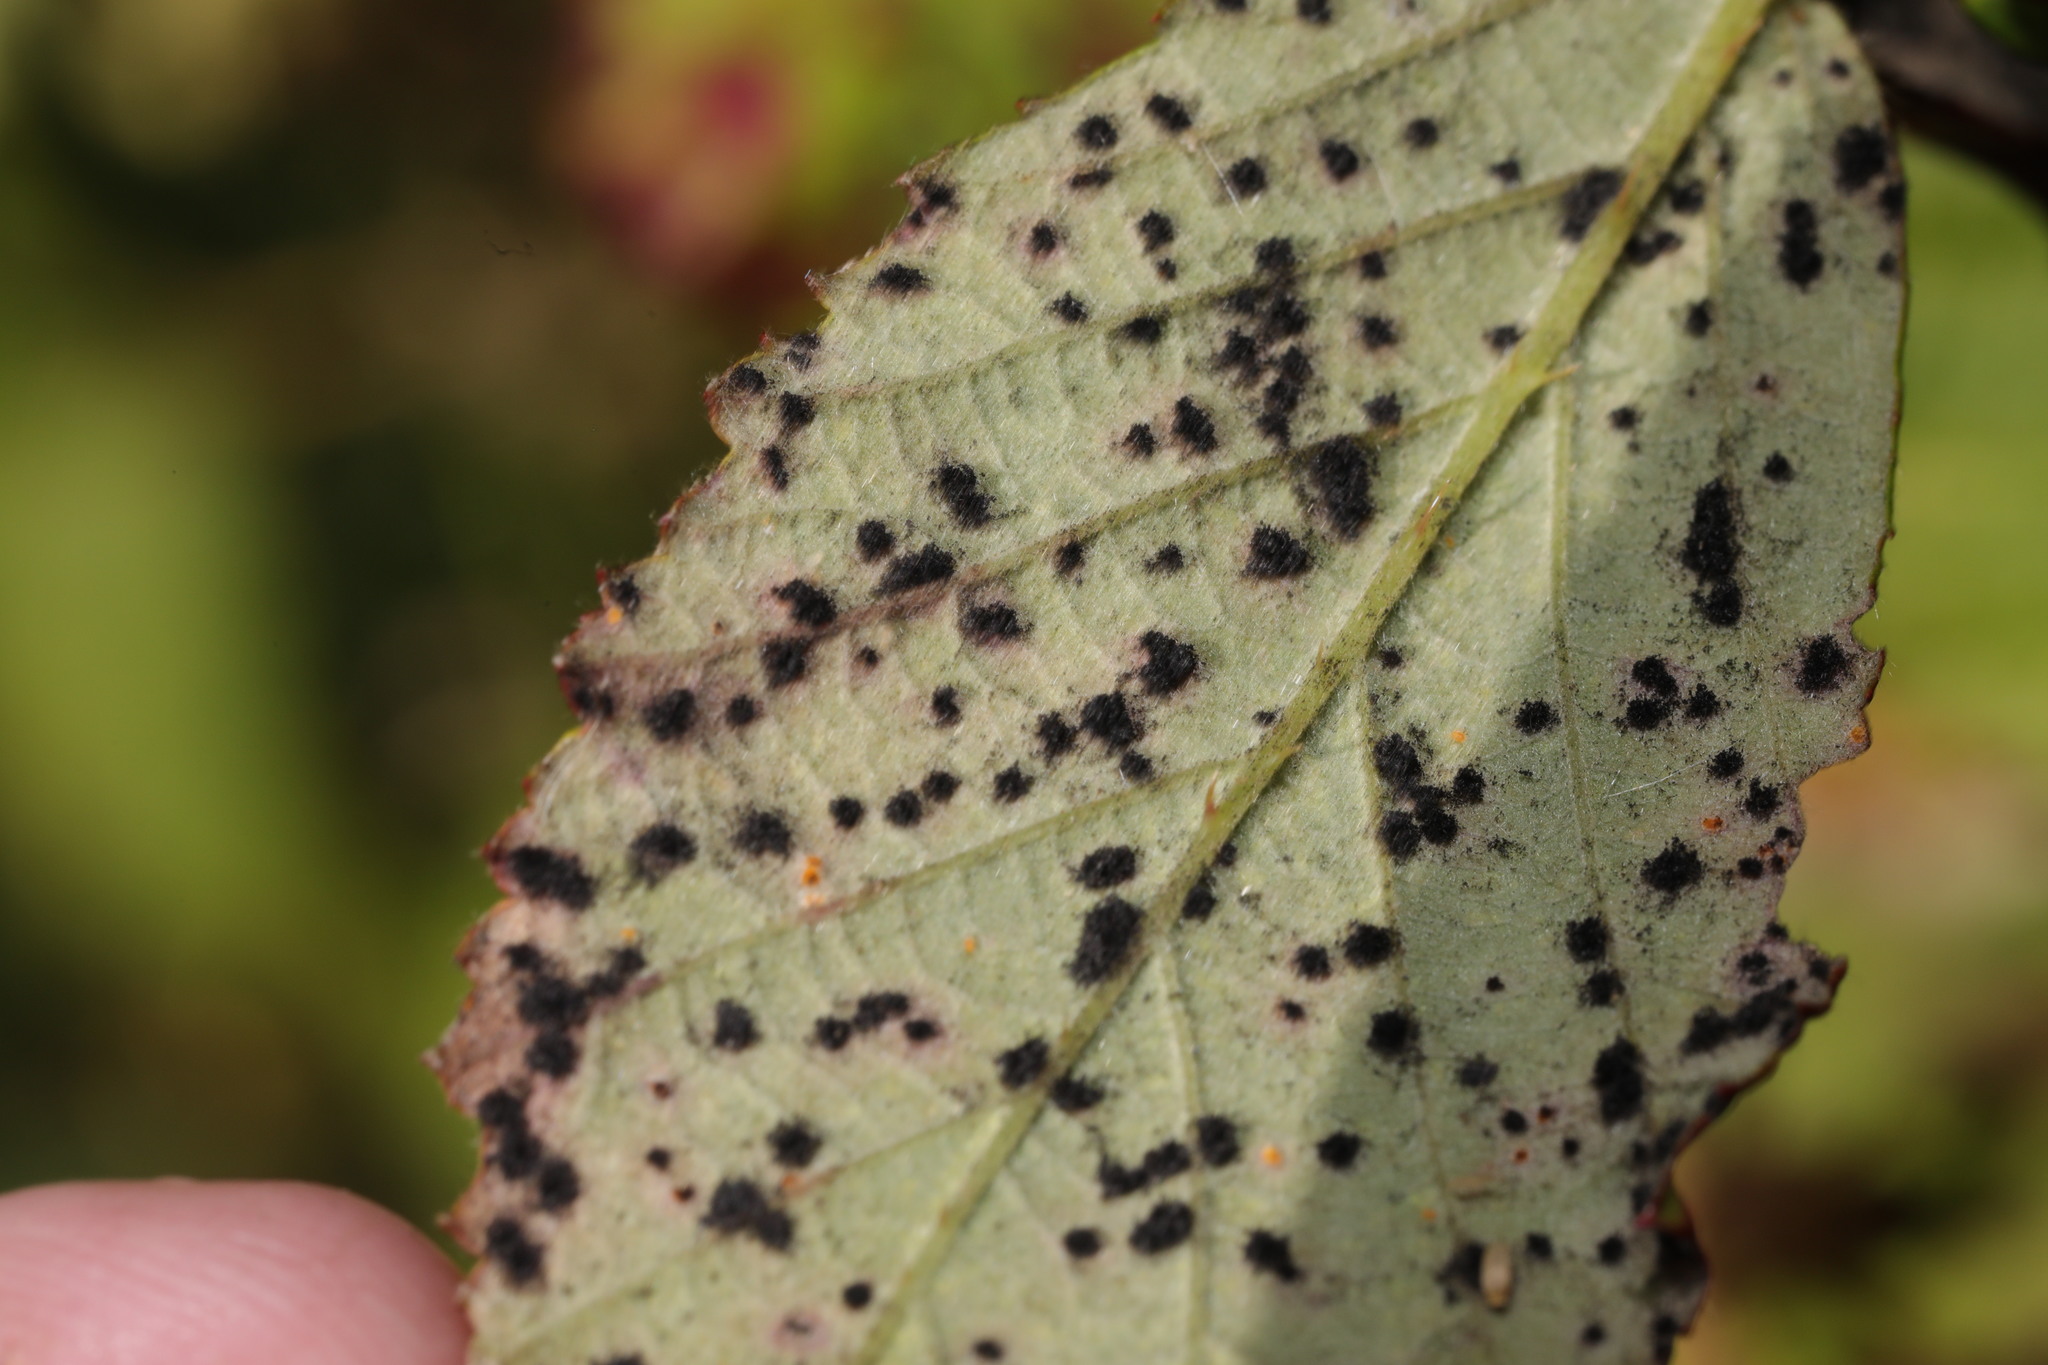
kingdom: Fungi
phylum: Basidiomycota
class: Pucciniomycetes
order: Pucciniales
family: Phragmidiaceae
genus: Phragmidium
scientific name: Phragmidium violaceum
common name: Violet bramble rust
